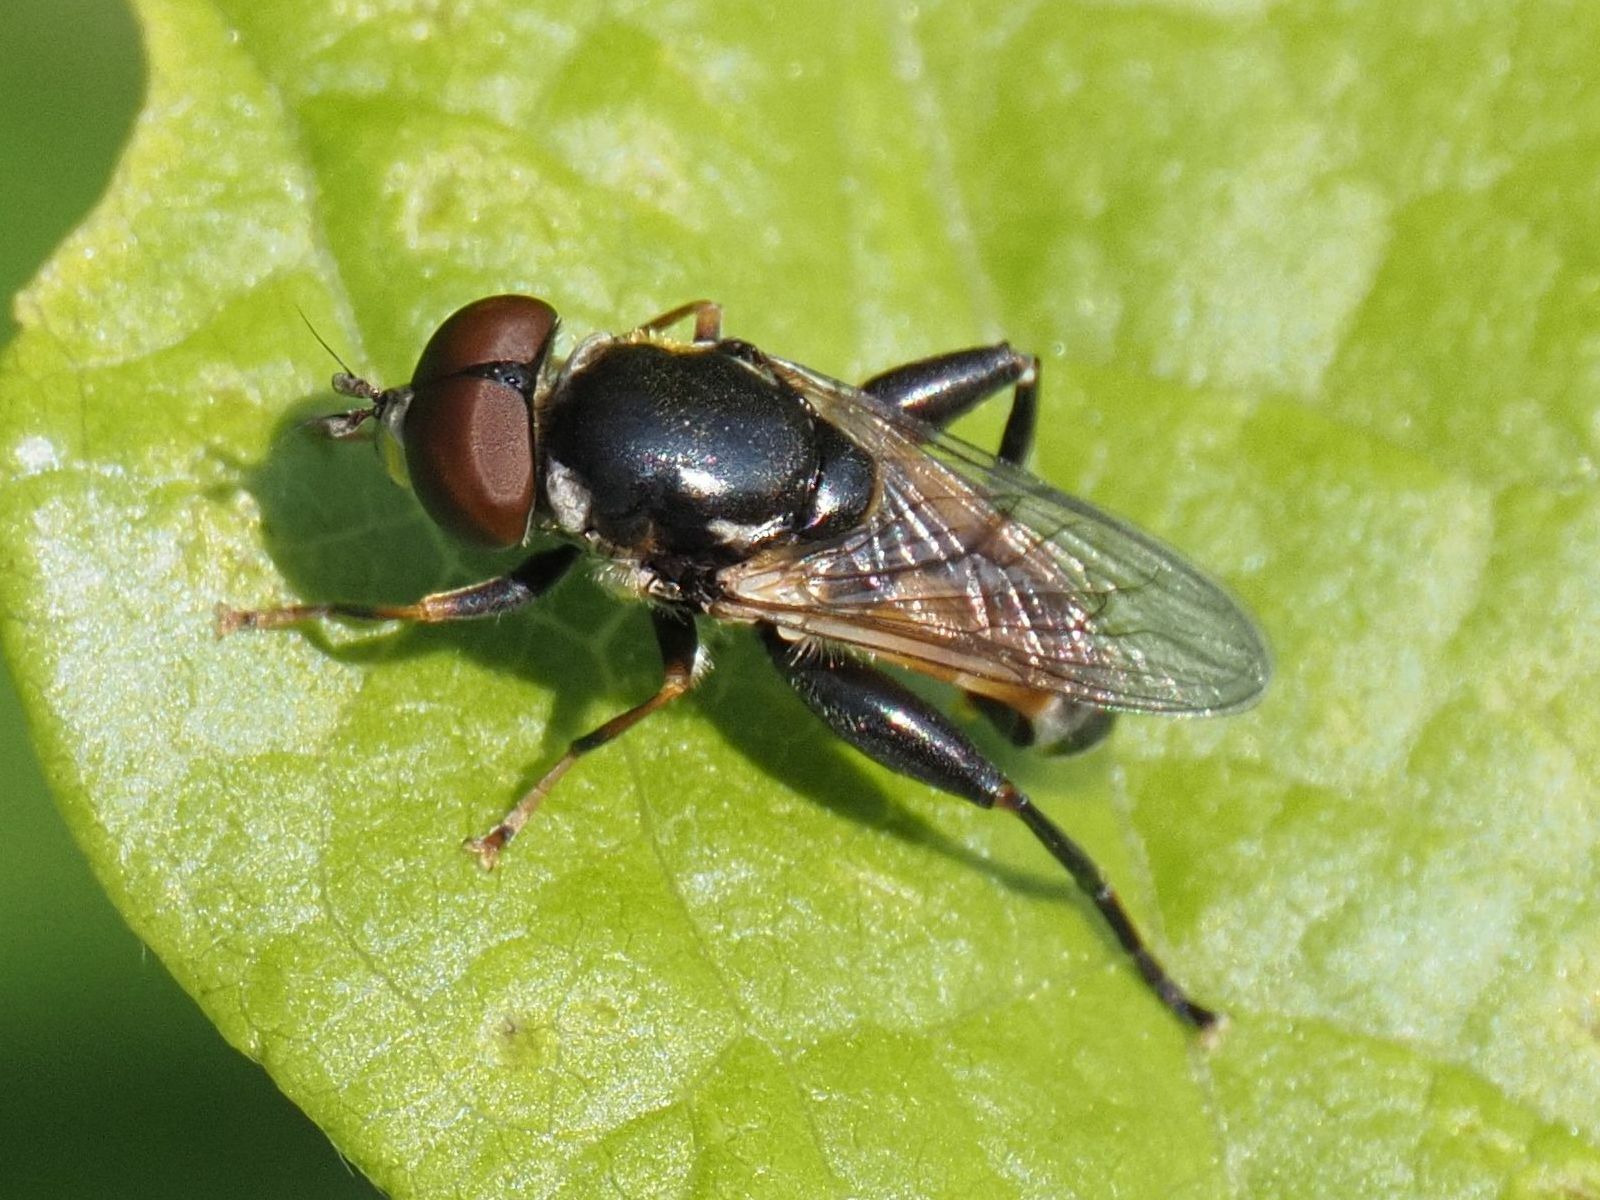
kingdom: Animalia
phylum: Arthropoda
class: Insecta
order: Diptera
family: Syrphidae
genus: Tropidia
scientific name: Tropidia scita
